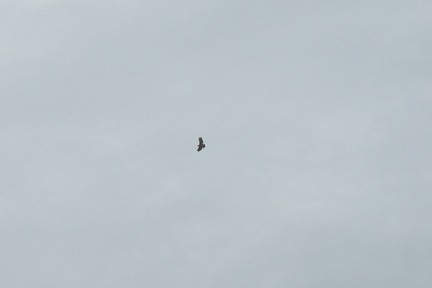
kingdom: Animalia
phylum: Chordata
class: Aves
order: Accipitriformes
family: Accipitridae
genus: Buteo
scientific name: Buteo jamaicensis
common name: Red-tailed hawk
